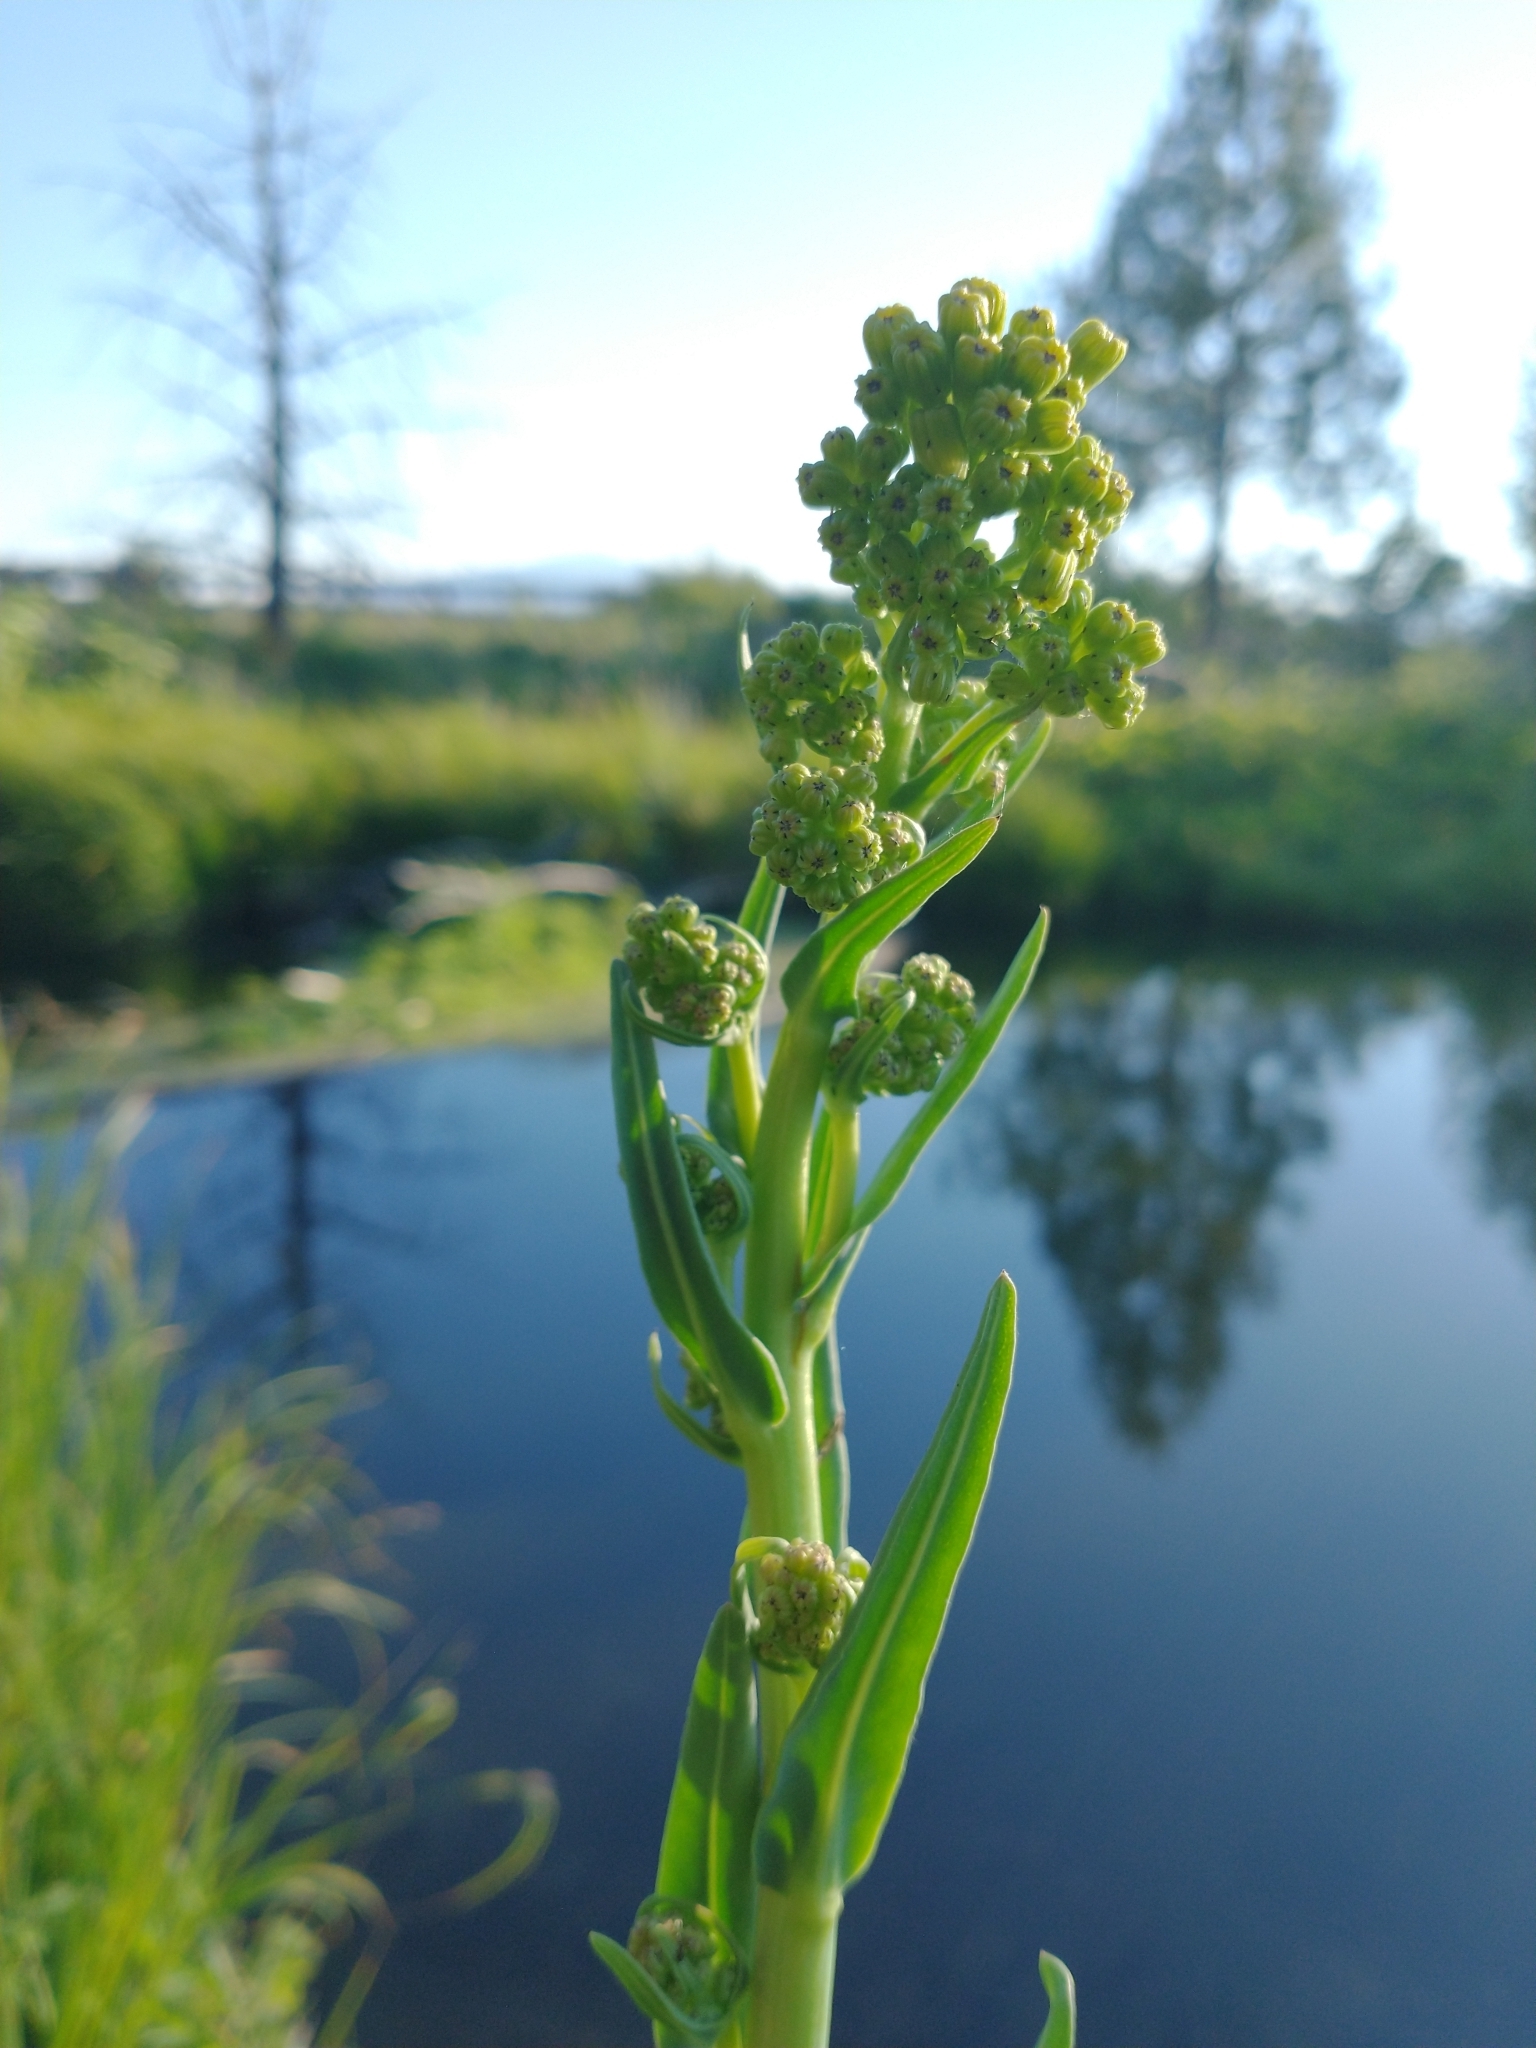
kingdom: Plantae
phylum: Tracheophyta
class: Magnoliopsida
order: Asterales
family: Asteraceae
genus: Senecio
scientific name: Senecio hydrophilus
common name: Water ragwort
